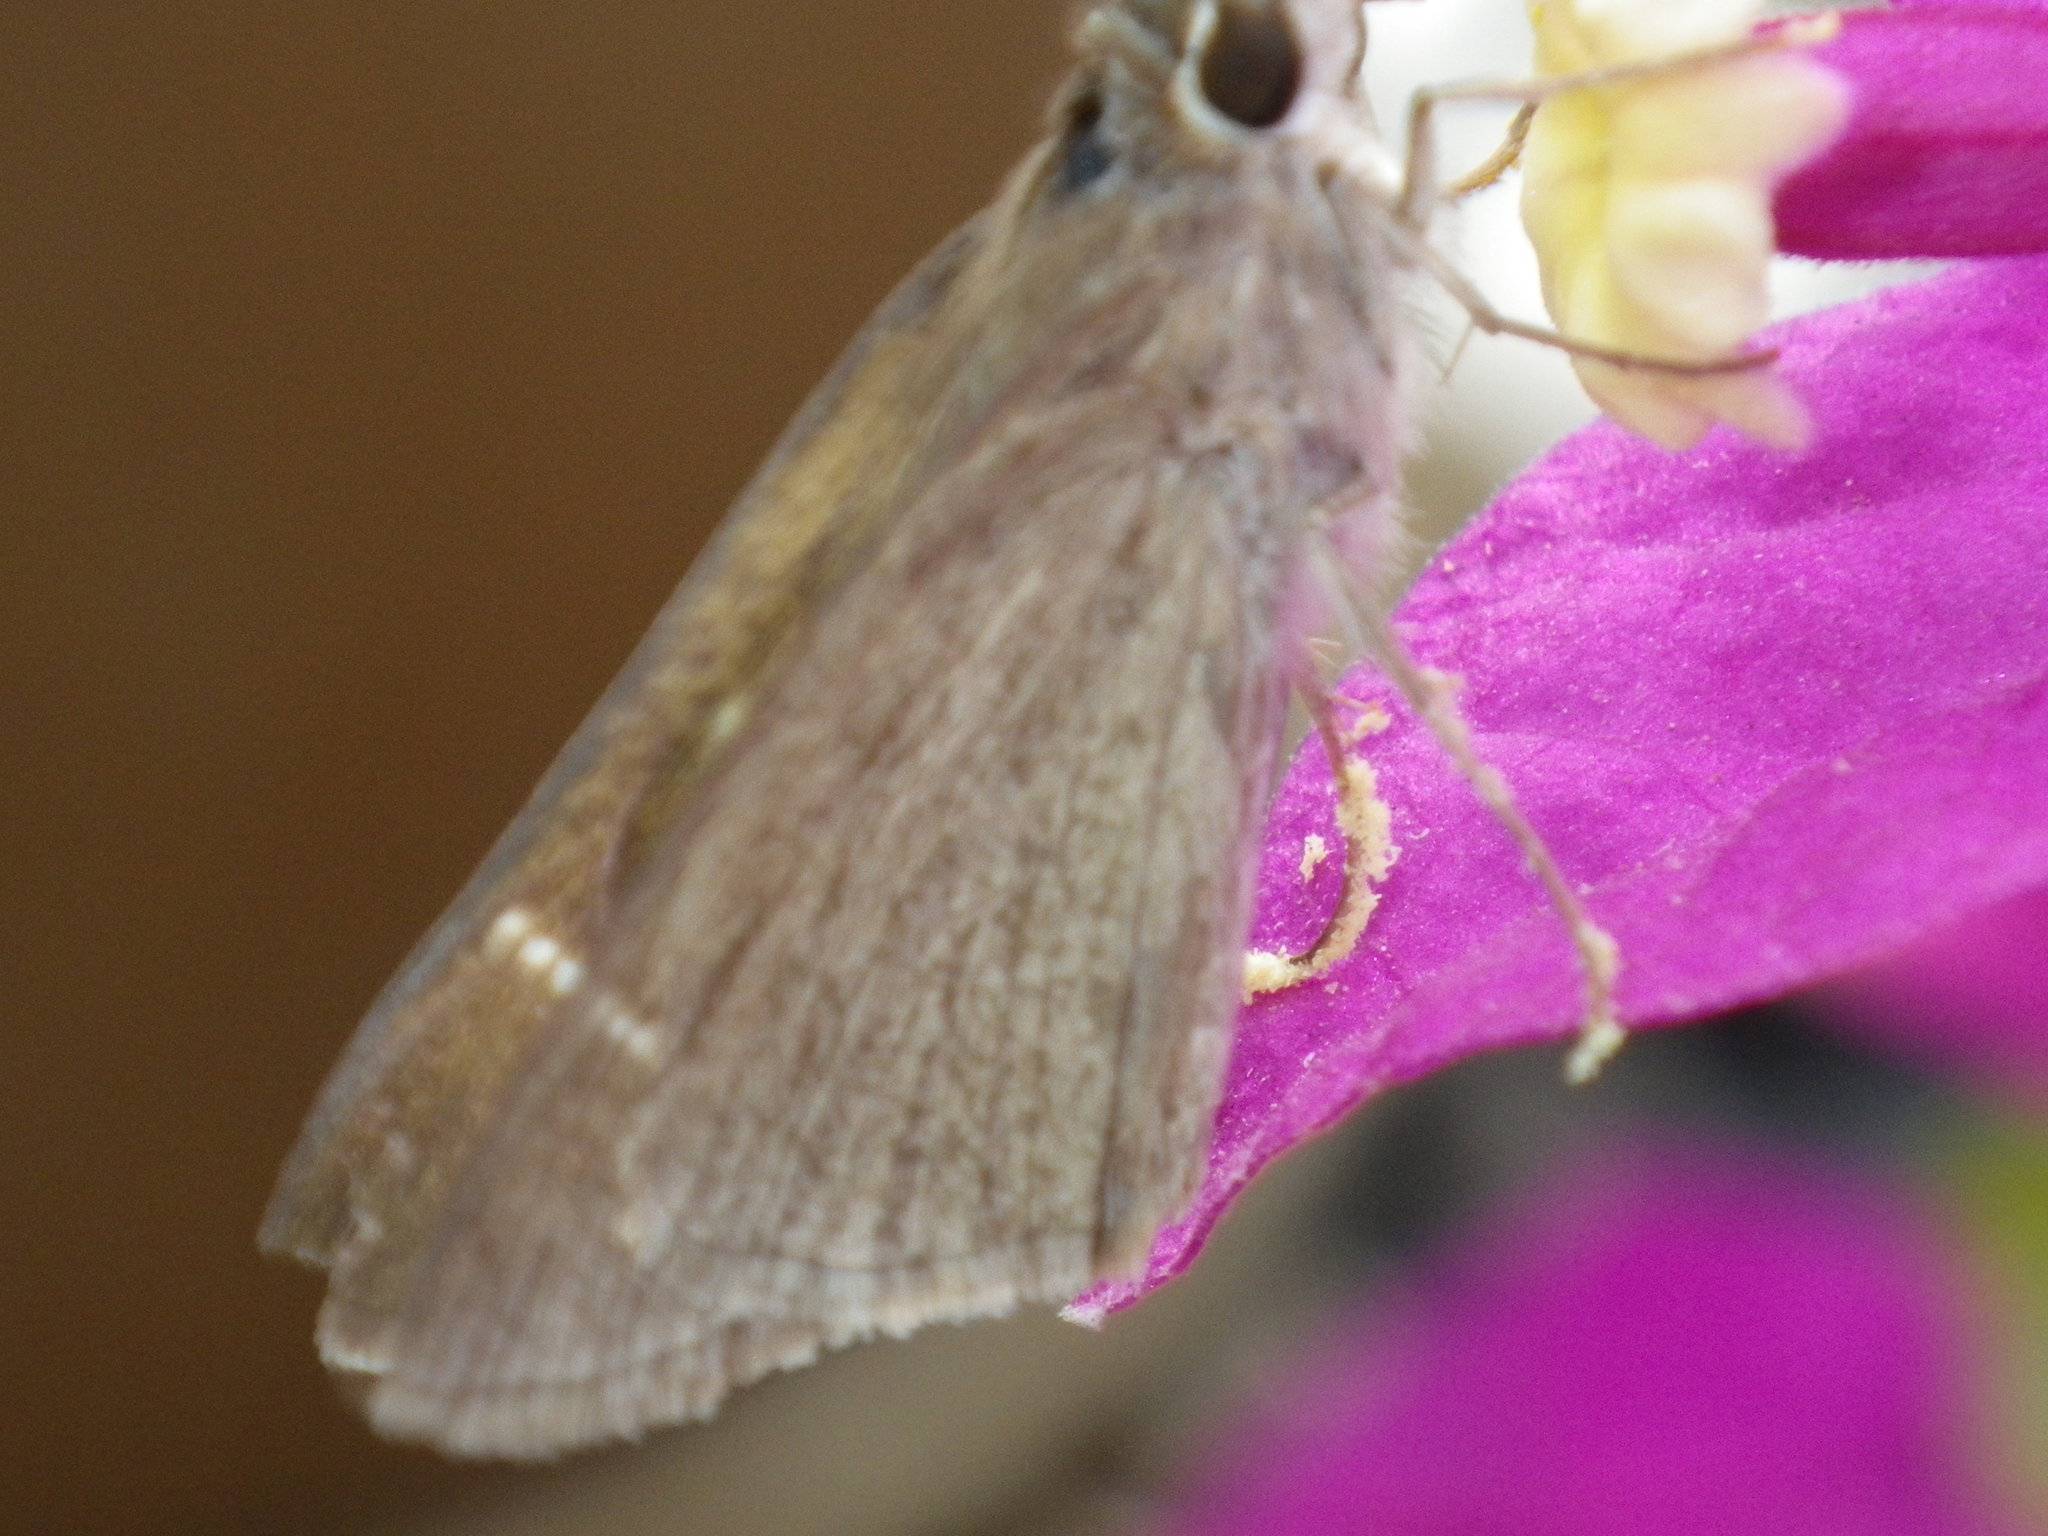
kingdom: Animalia
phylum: Arthropoda
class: Insecta
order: Lepidoptera
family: Hesperiidae
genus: Lerodea
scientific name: Lerodea eufala
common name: Eufala skipper
